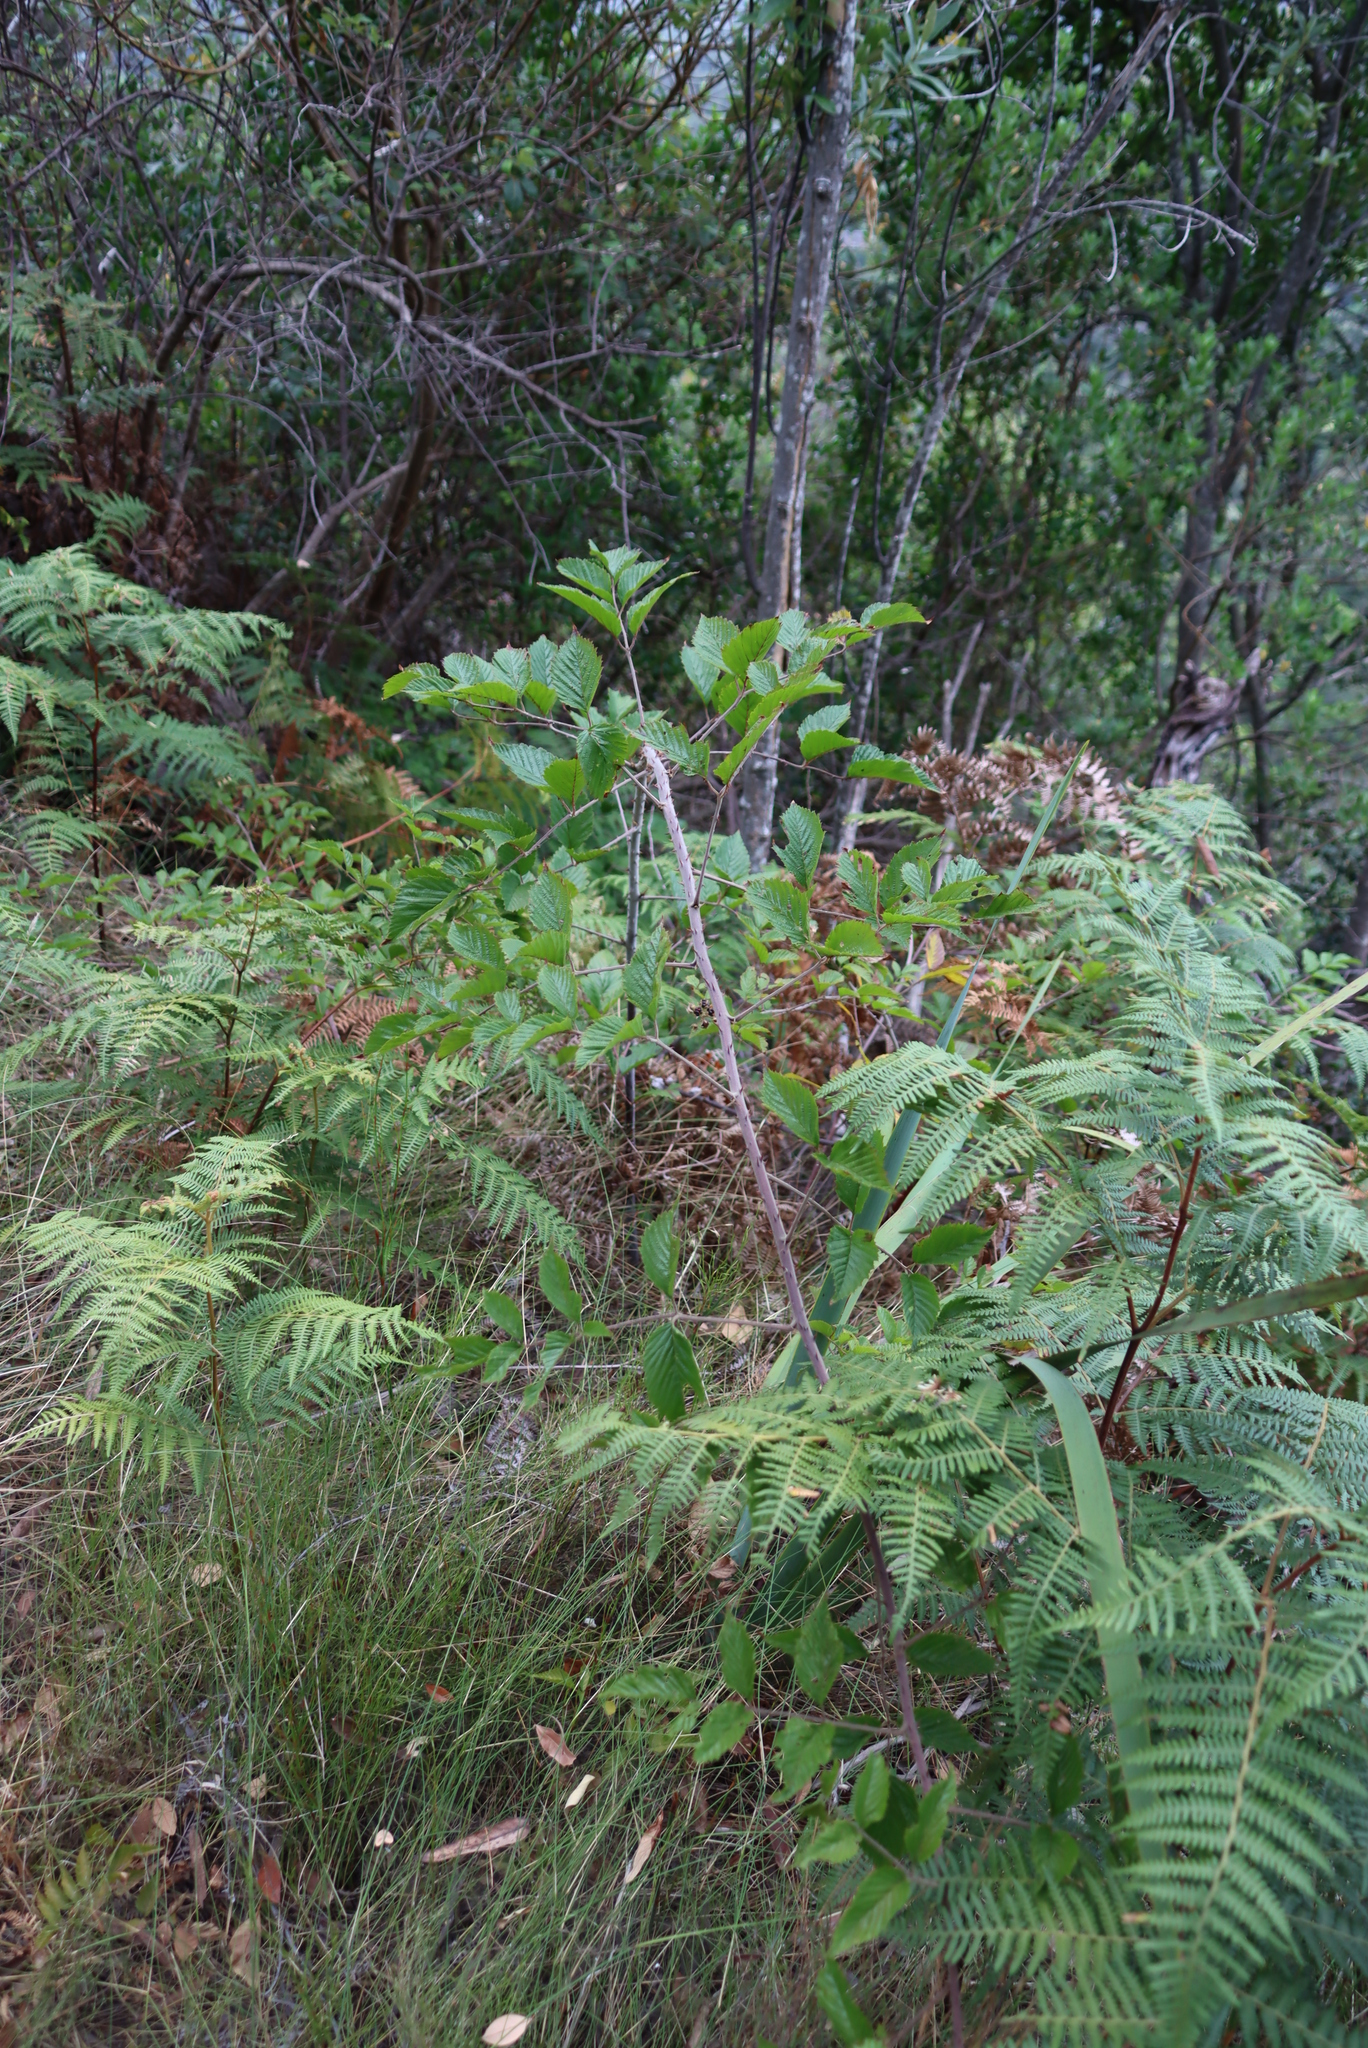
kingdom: Plantae
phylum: Tracheophyta
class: Magnoliopsida
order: Rosales
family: Rosaceae
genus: Rubus
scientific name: Rubus pinnatus
